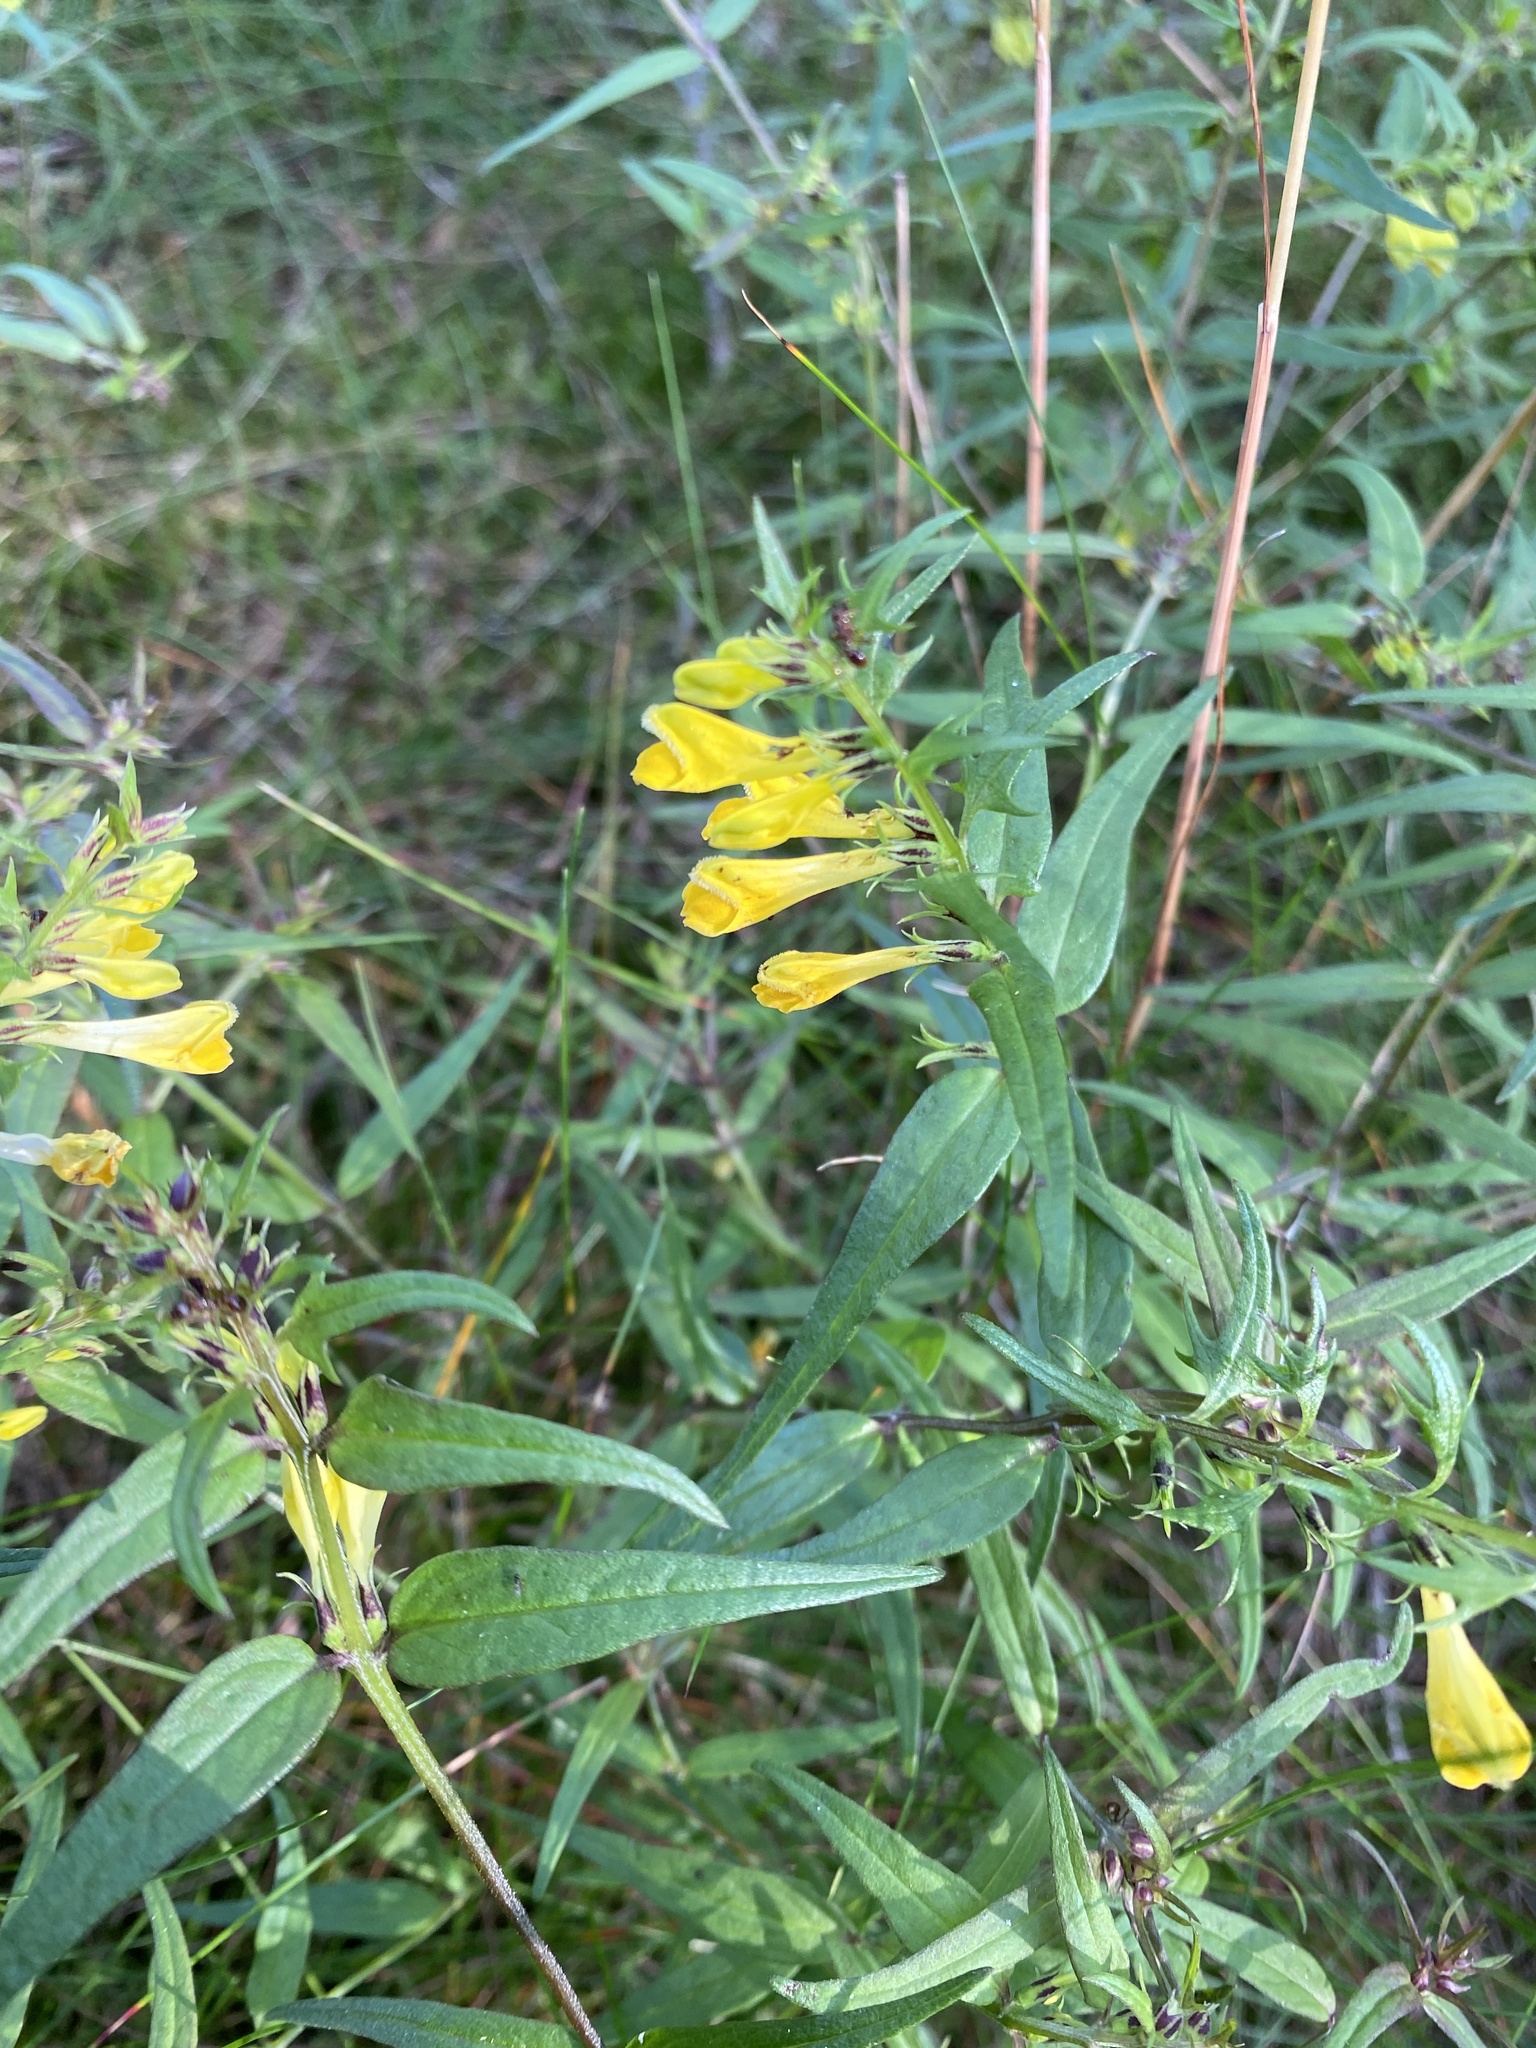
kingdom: Plantae
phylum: Tracheophyta
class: Magnoliopsida
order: Lamiales
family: Orobanchaceae
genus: Melampyrum
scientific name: Melampyrum pratense
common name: Common cow-wheat
